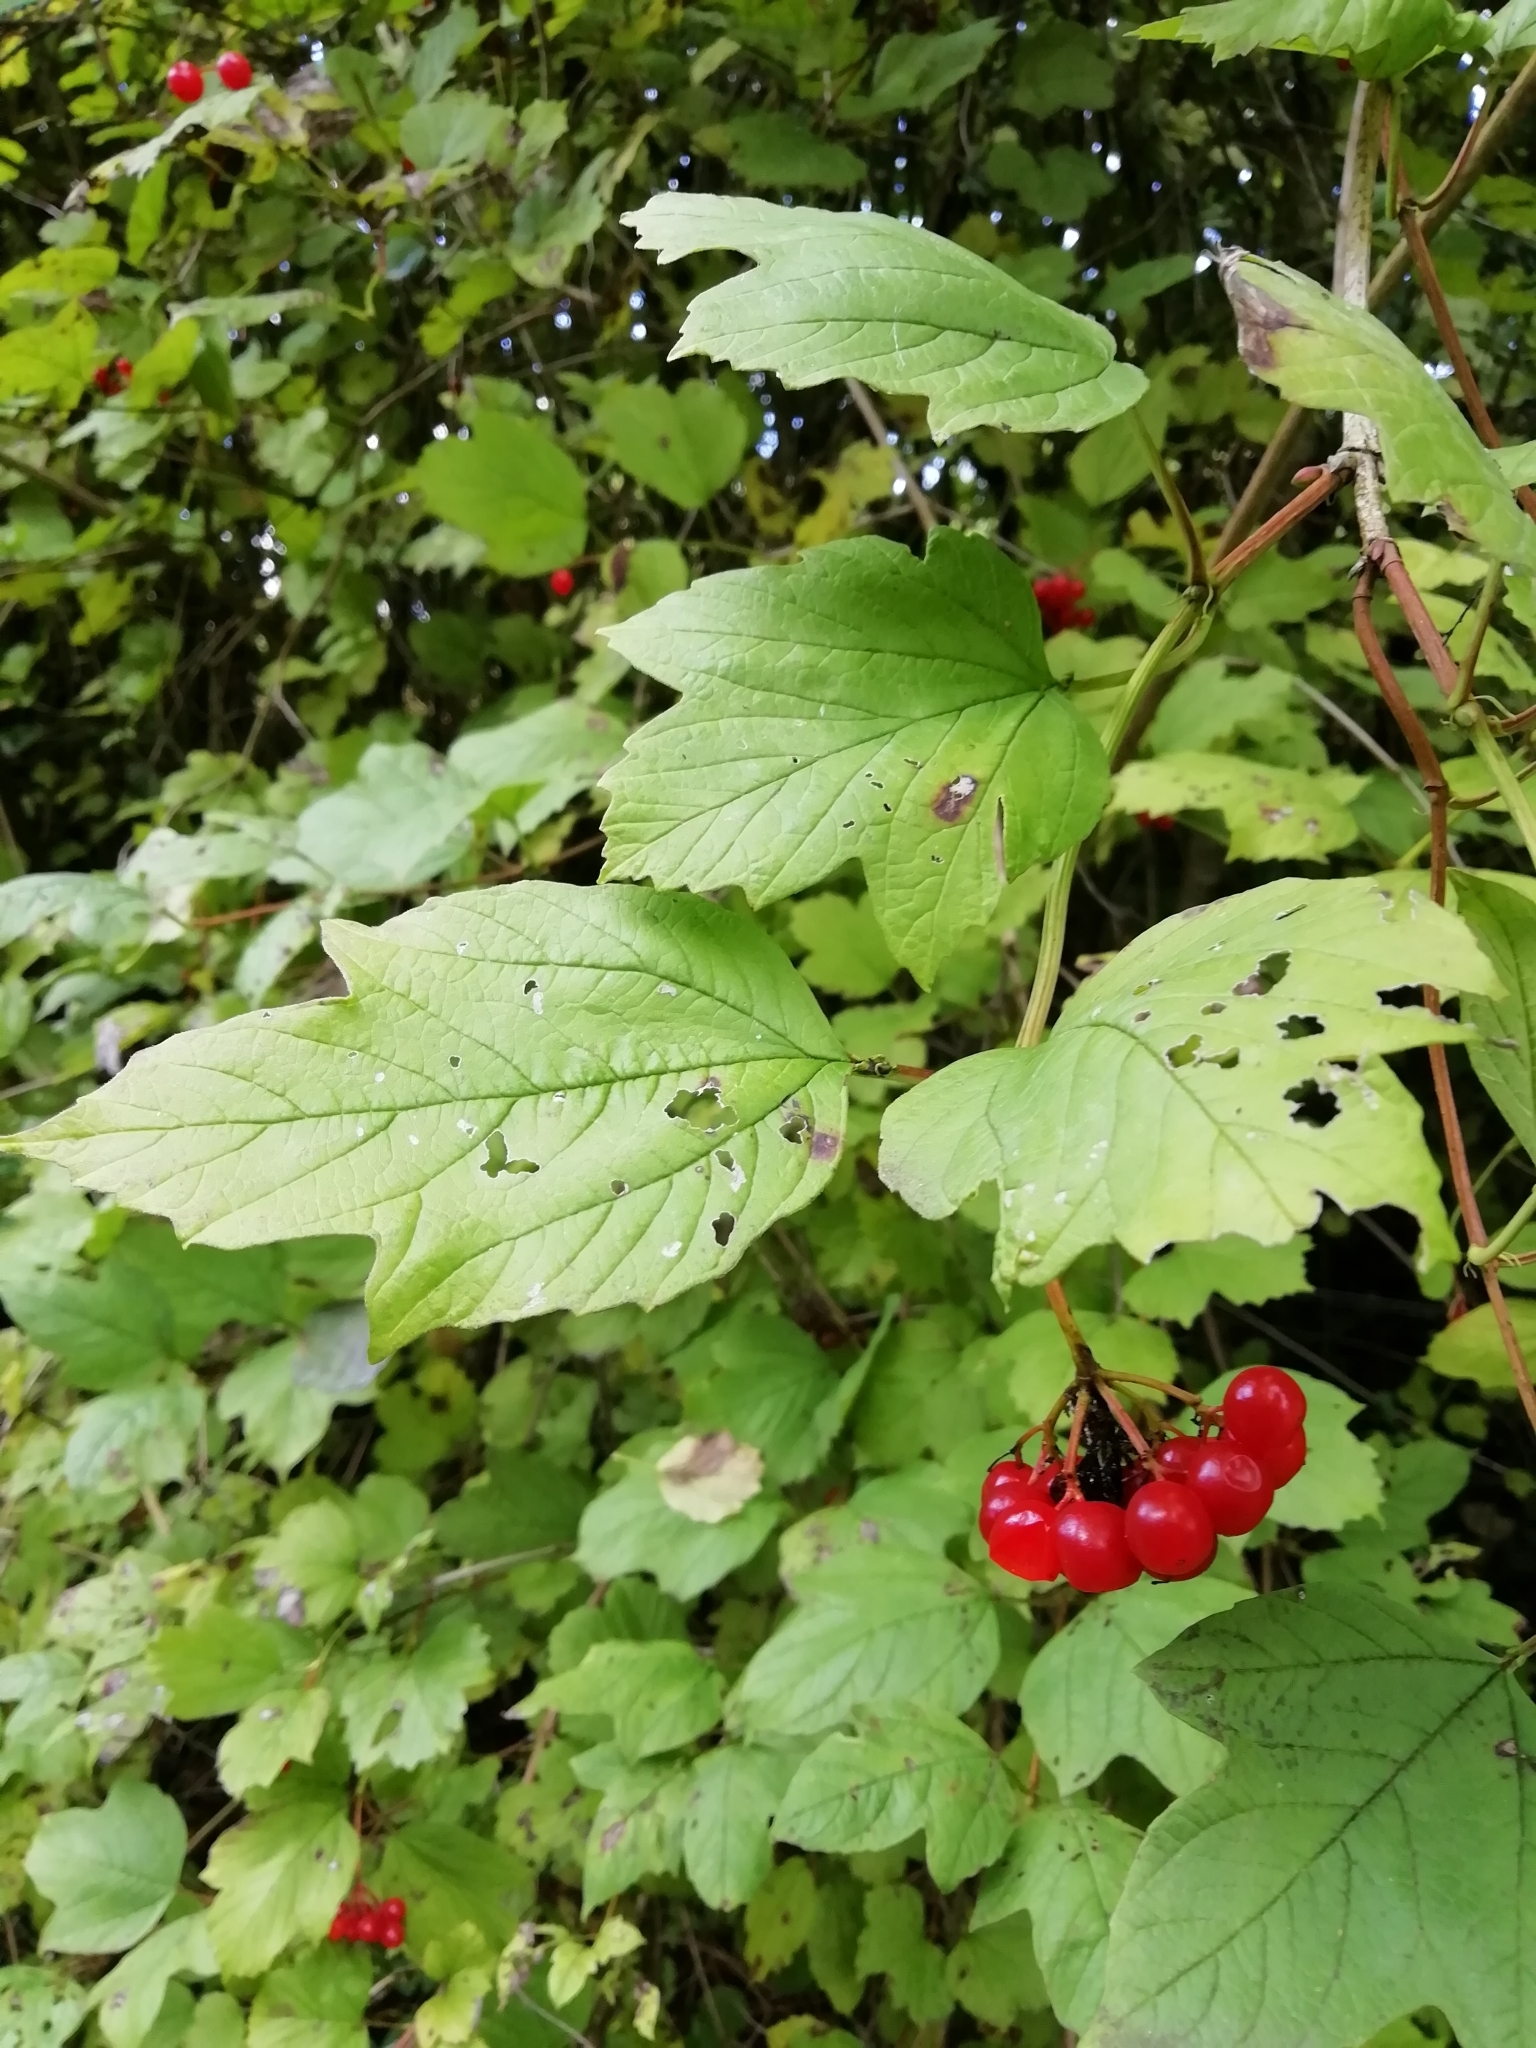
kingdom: Plantae
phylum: Tracheophyta
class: Magnoliopsida
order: Dipsacales
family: Viburnaceae
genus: Viburnum
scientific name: Viburnum opulus
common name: Guelder-rose
